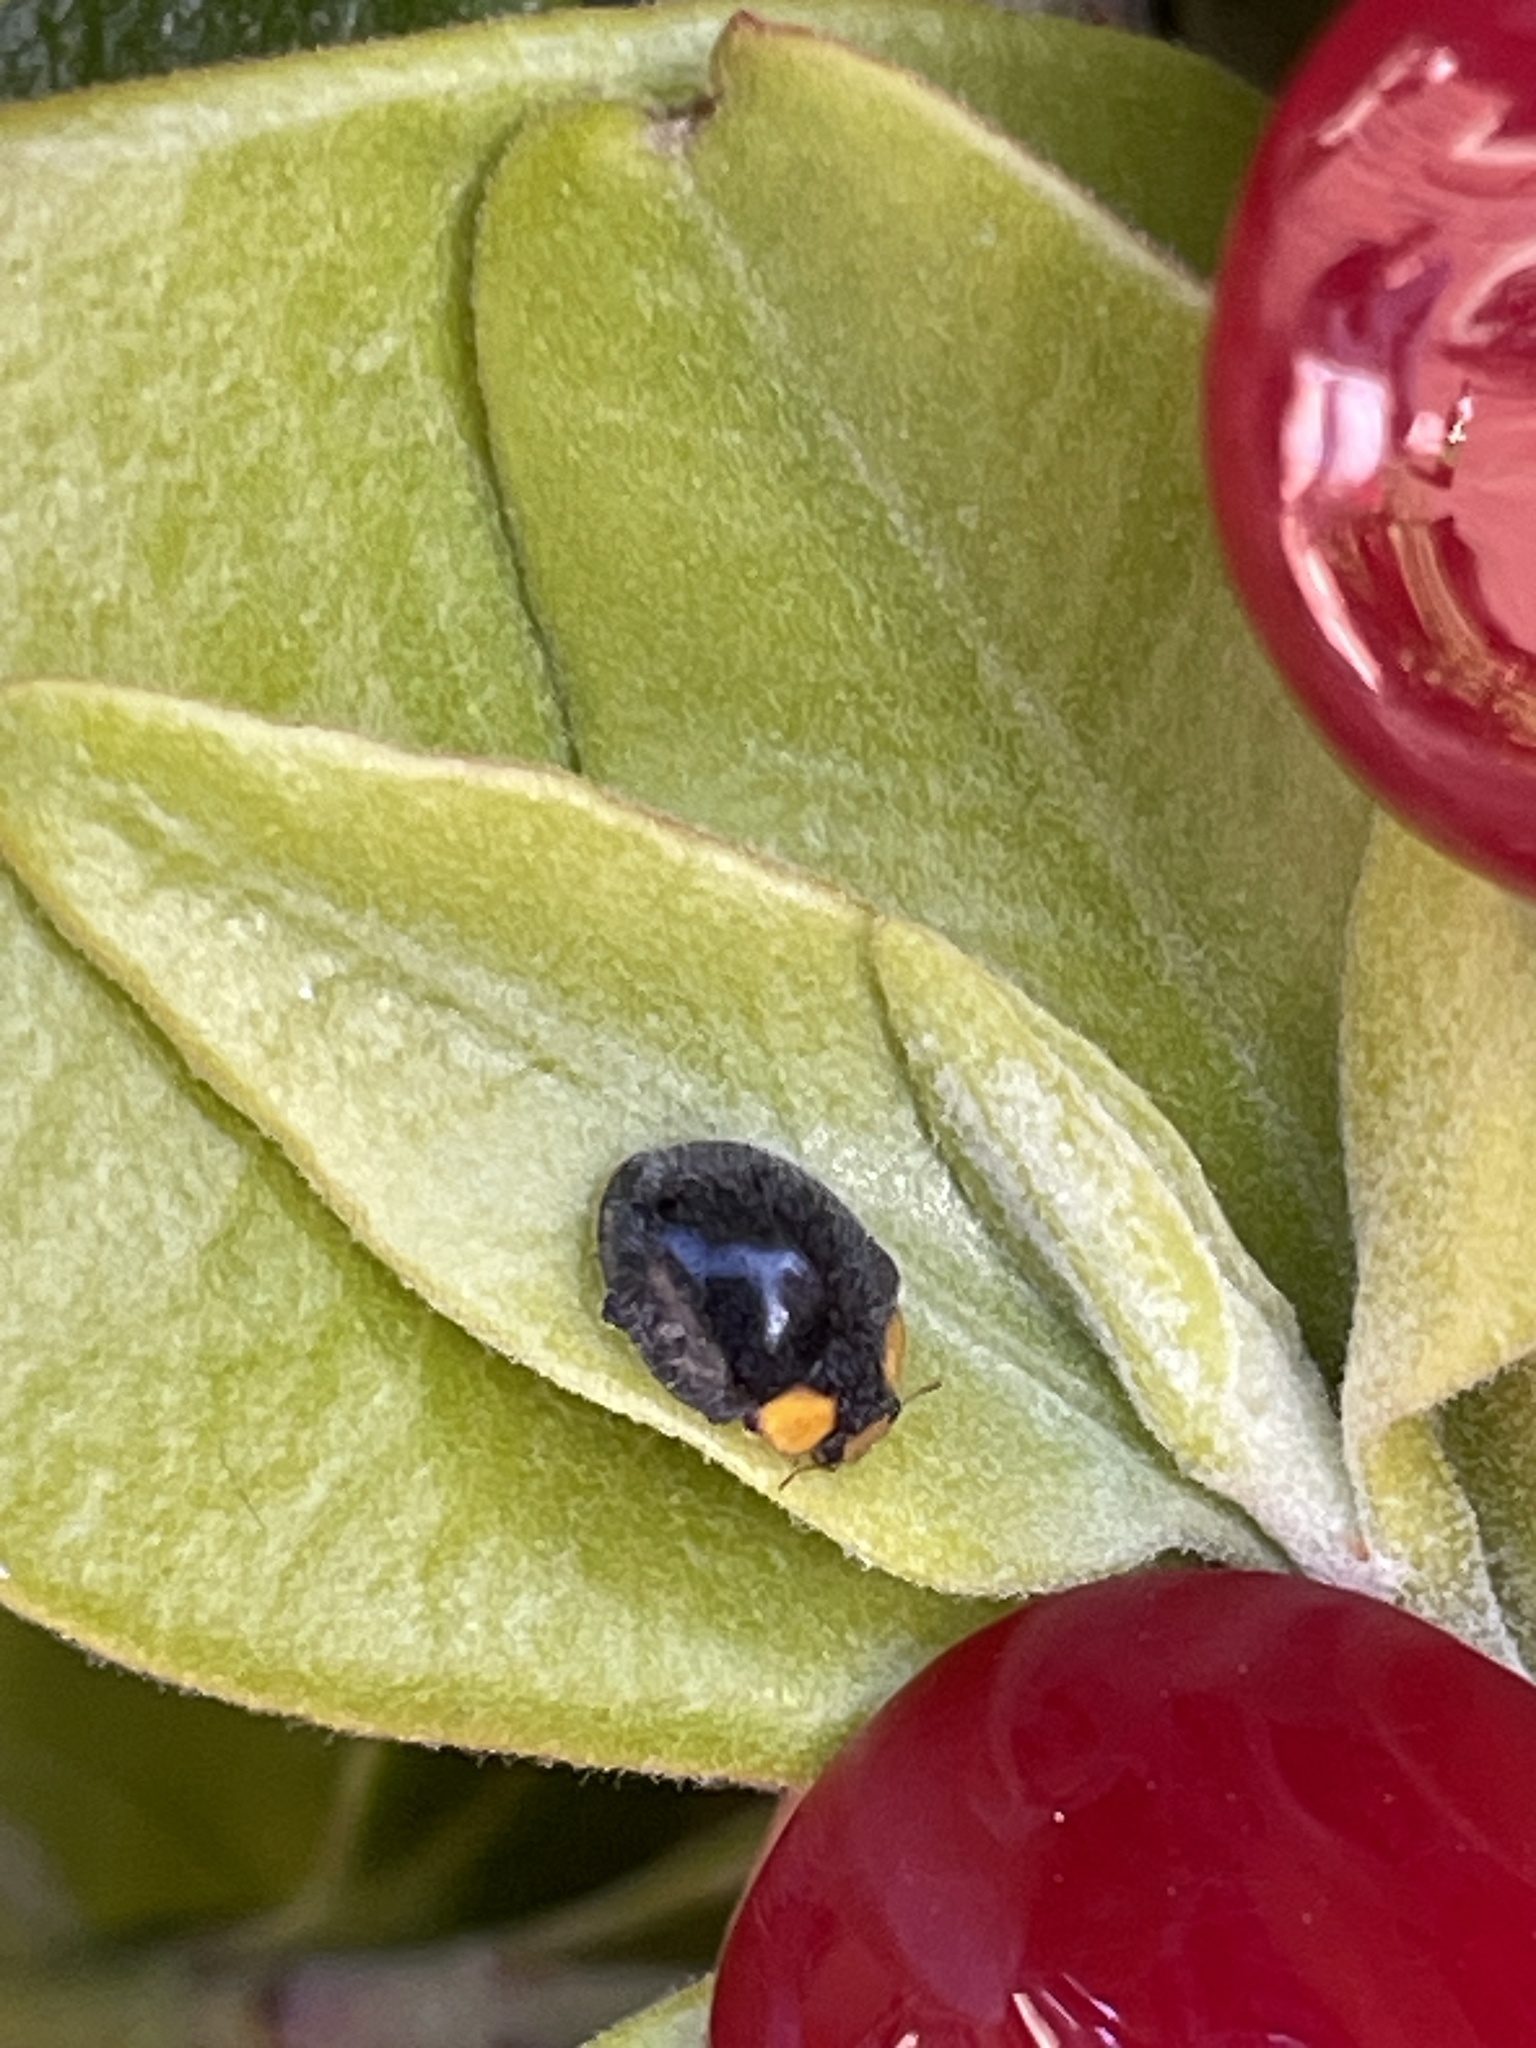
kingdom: Animalia
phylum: Arthropoda
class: Insecta
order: Coleoptera
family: Coccinellidae
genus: Scymnodes
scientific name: Scymnodes lividigaster
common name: Yellowshouldered lady beetle
